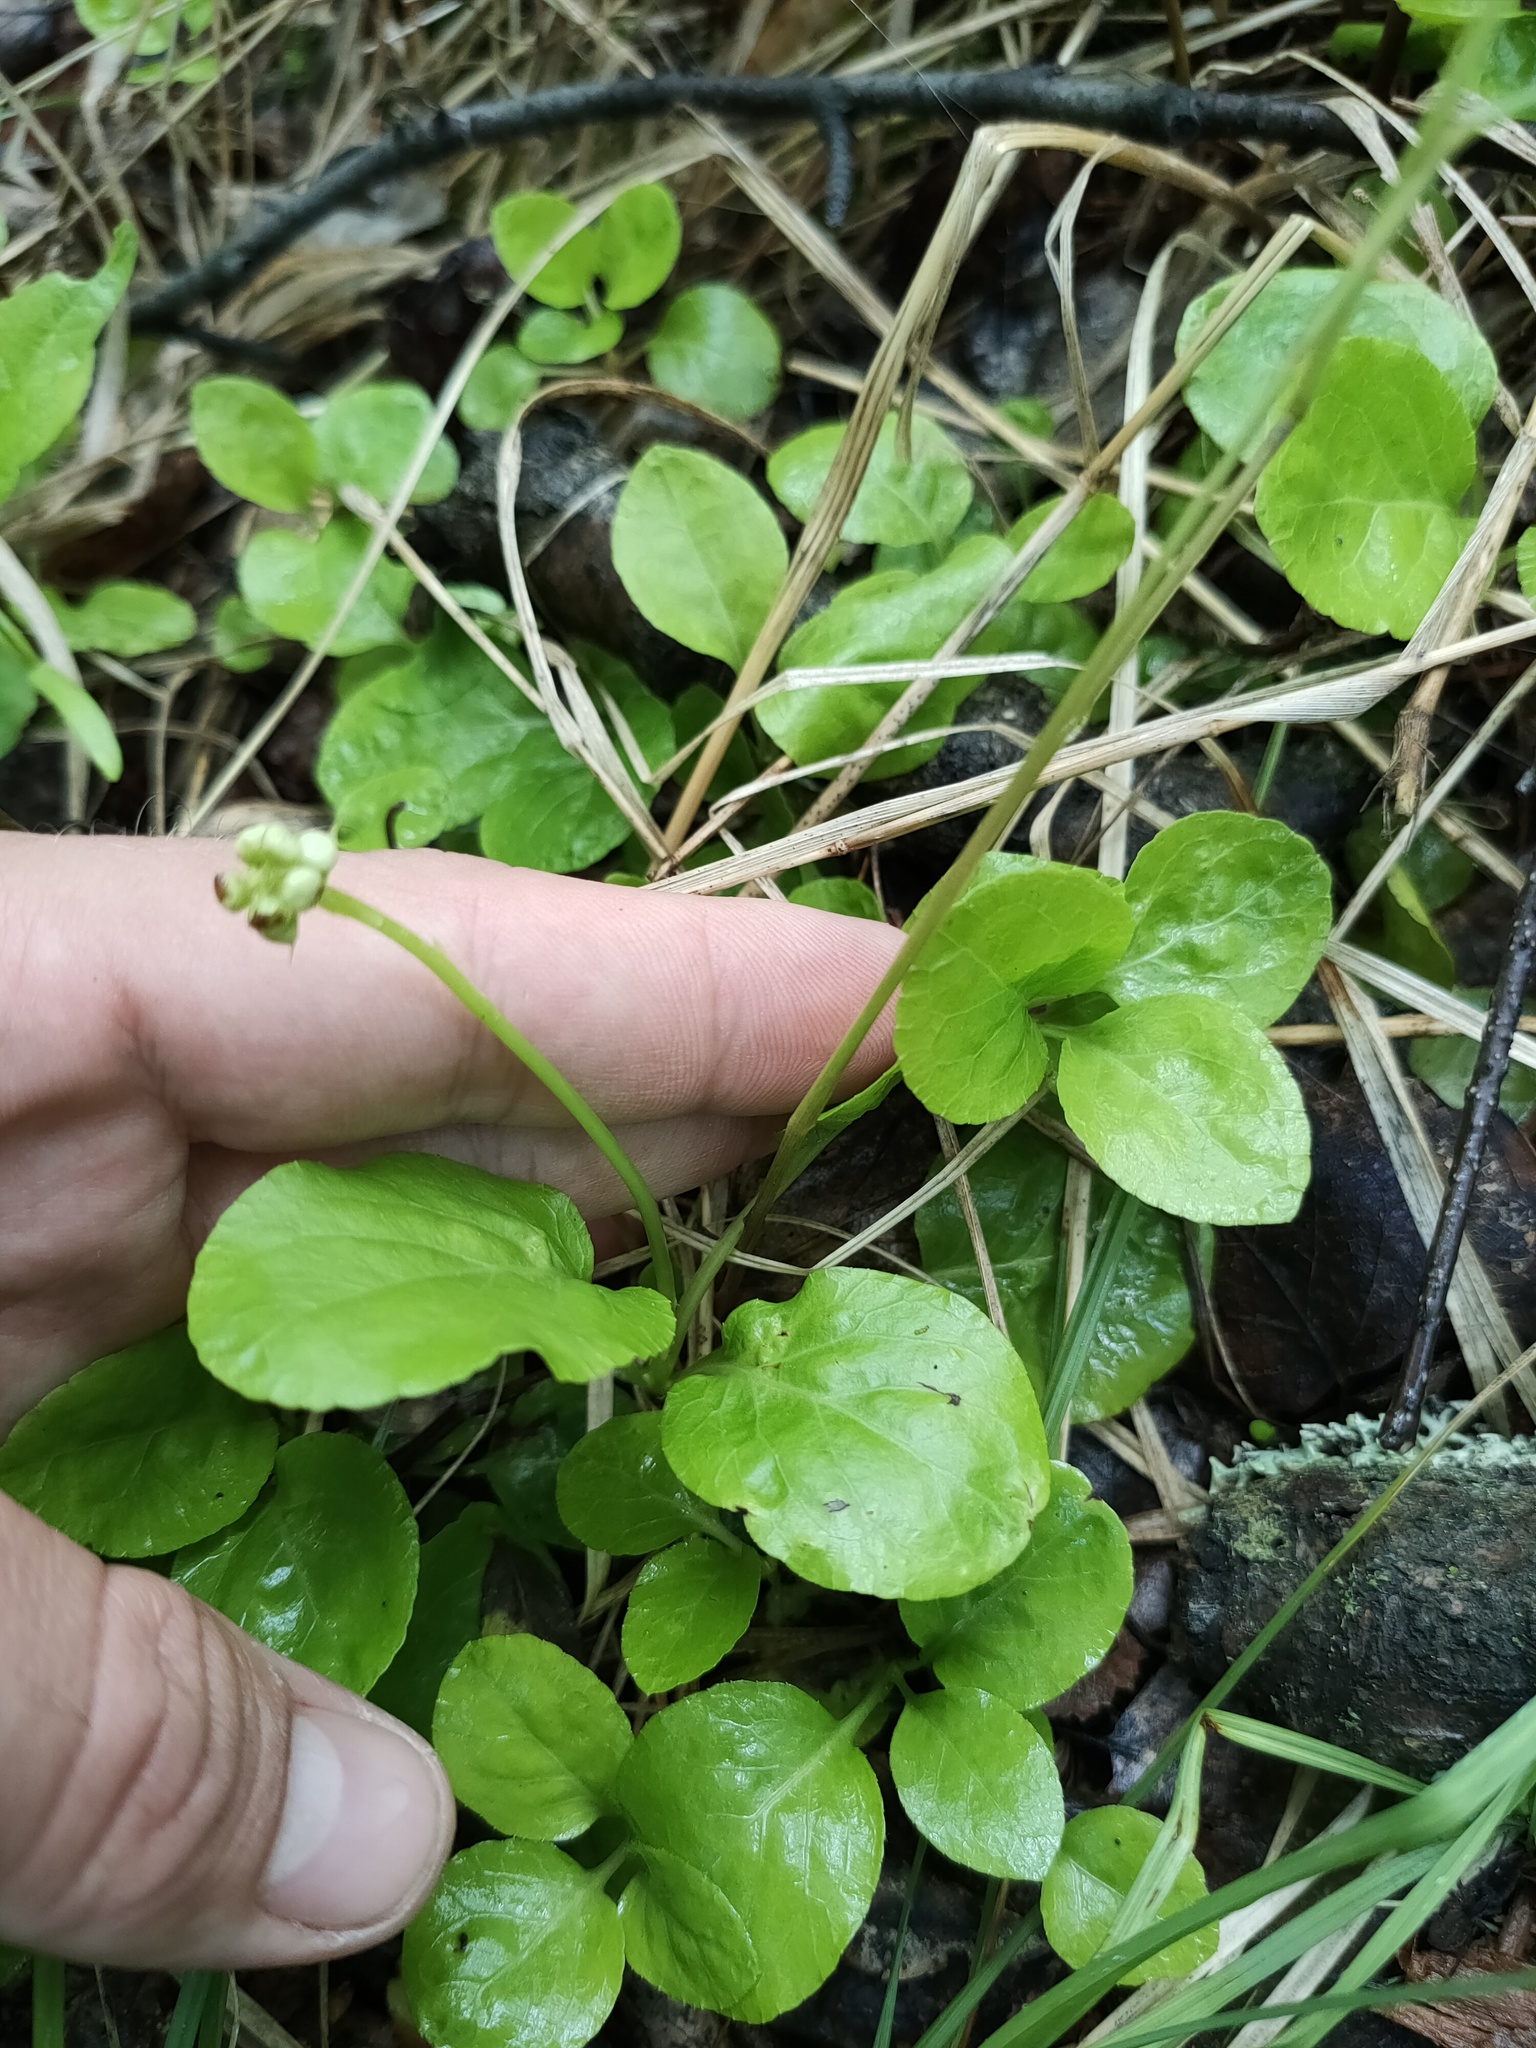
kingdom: Plantae
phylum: Tracheophyta
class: Magnoliopsida
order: Ericales
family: Ericaceae
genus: Pyrola
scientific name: Pyrola minor
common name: Common wintergreen
